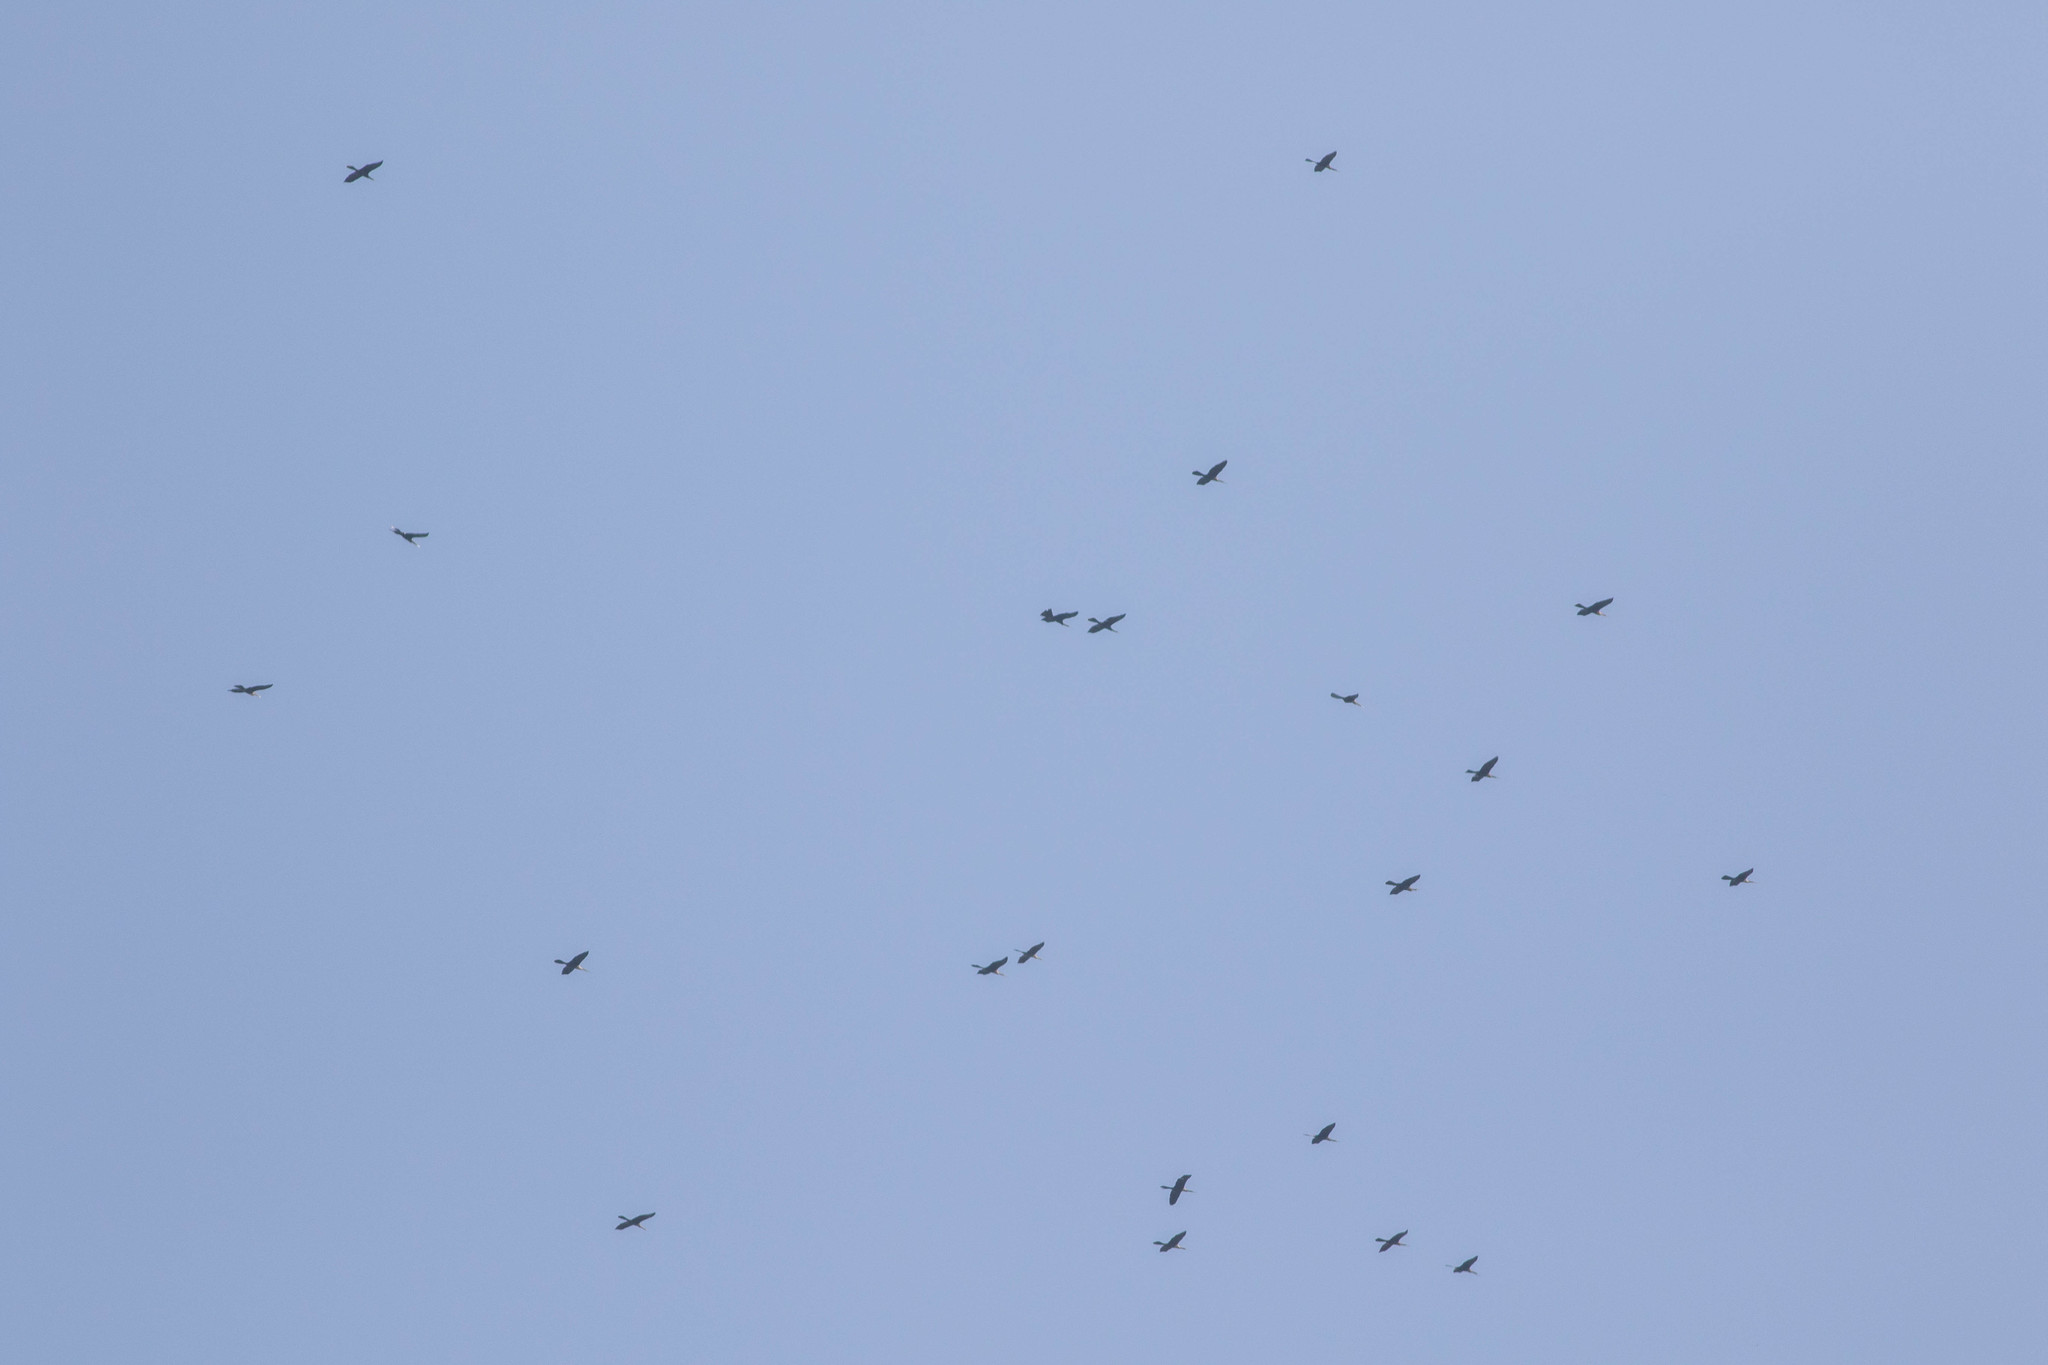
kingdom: Animalia
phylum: Chordata
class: Aves
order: Suliformes
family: Anhingidae
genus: Anhinga
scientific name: Anhinga anhinga
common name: Anhinga
